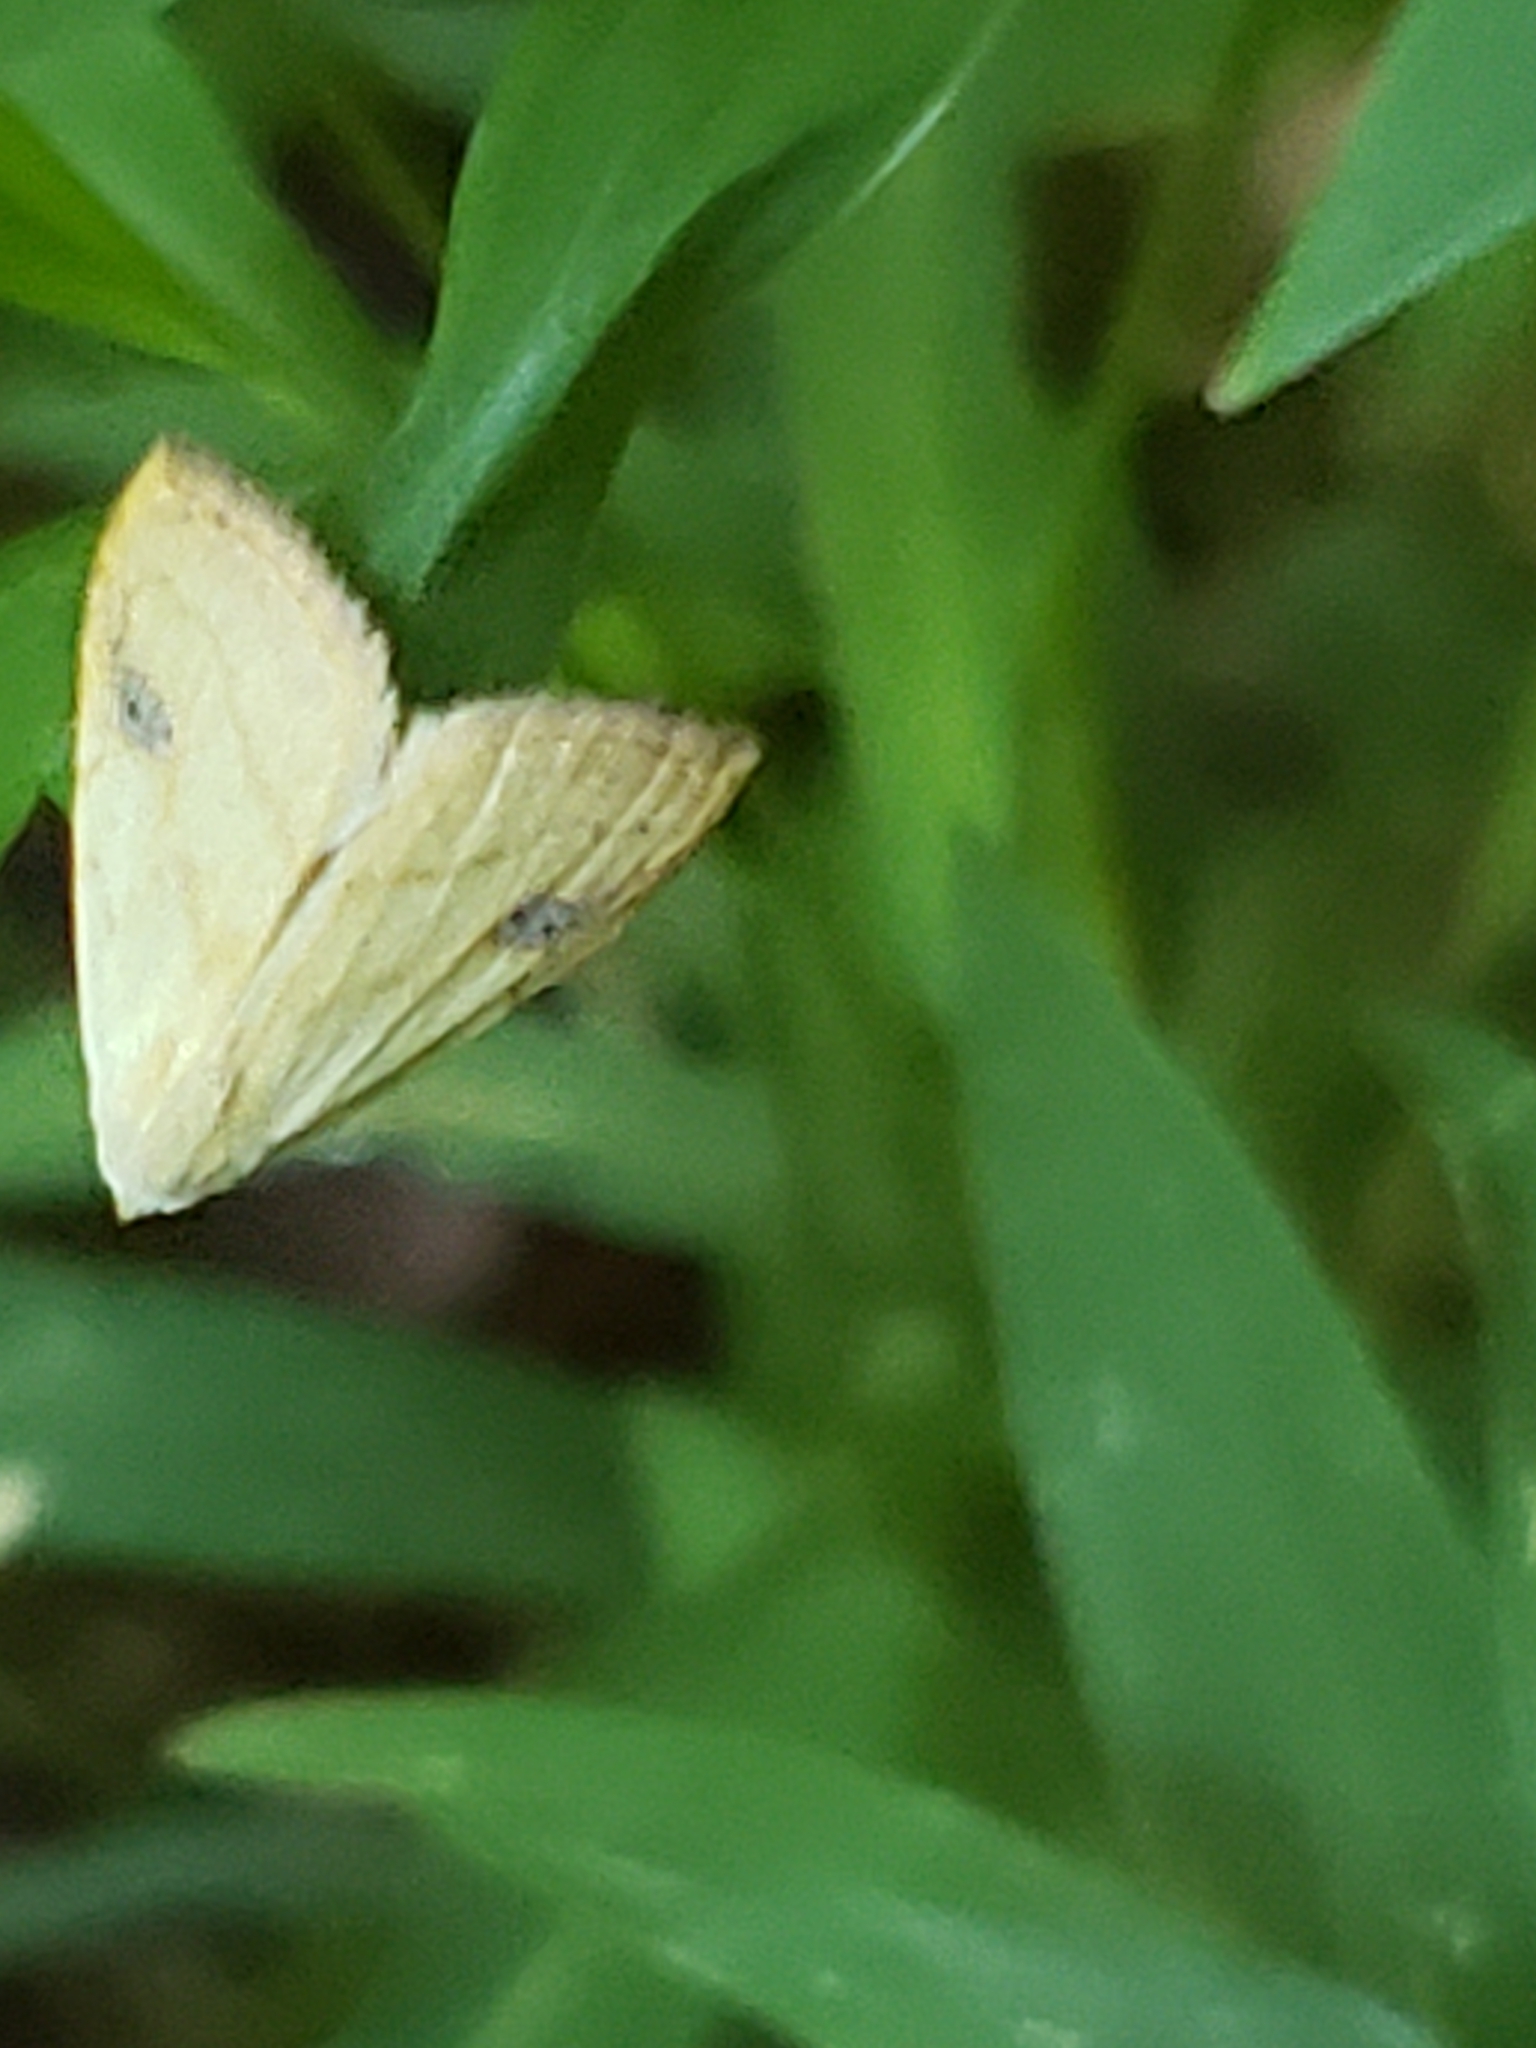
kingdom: Animalia
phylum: Arthropoda
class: Insecta
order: Lepidoptera
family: Erebidae
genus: Rivula
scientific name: Rivula propinqualis
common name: Spotted grass moth
